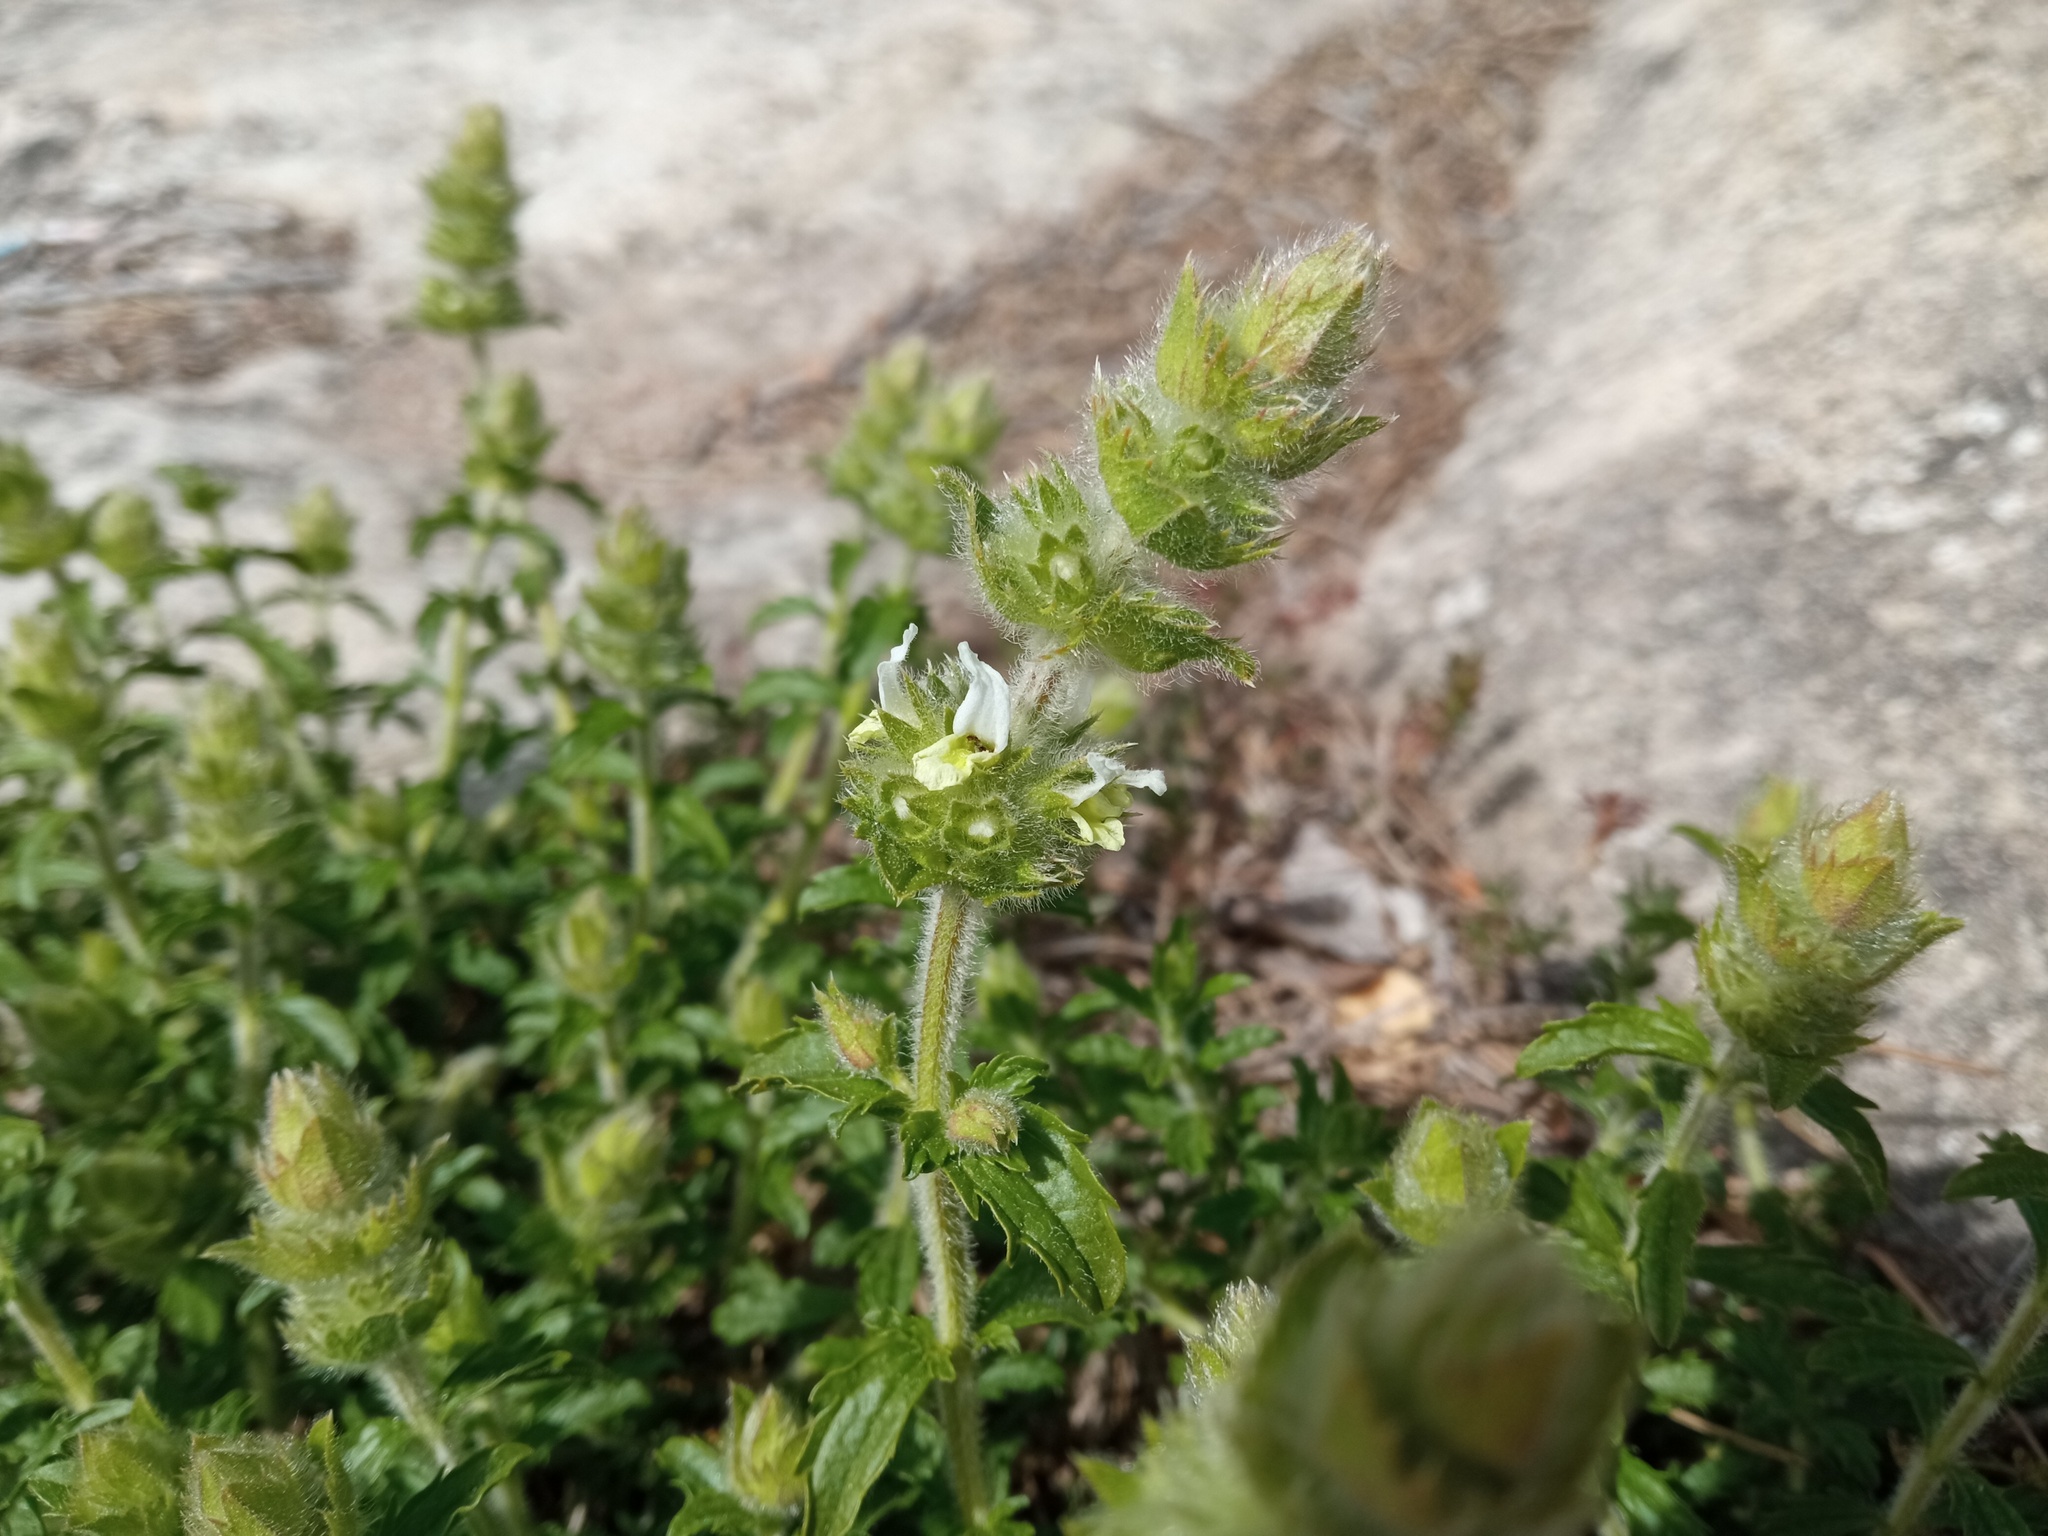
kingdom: Plantae
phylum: Tracheophyta
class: Magnoliopsida
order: Lamiales
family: Lamiaceae
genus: Sideritis
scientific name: Sideritis hirsuta
